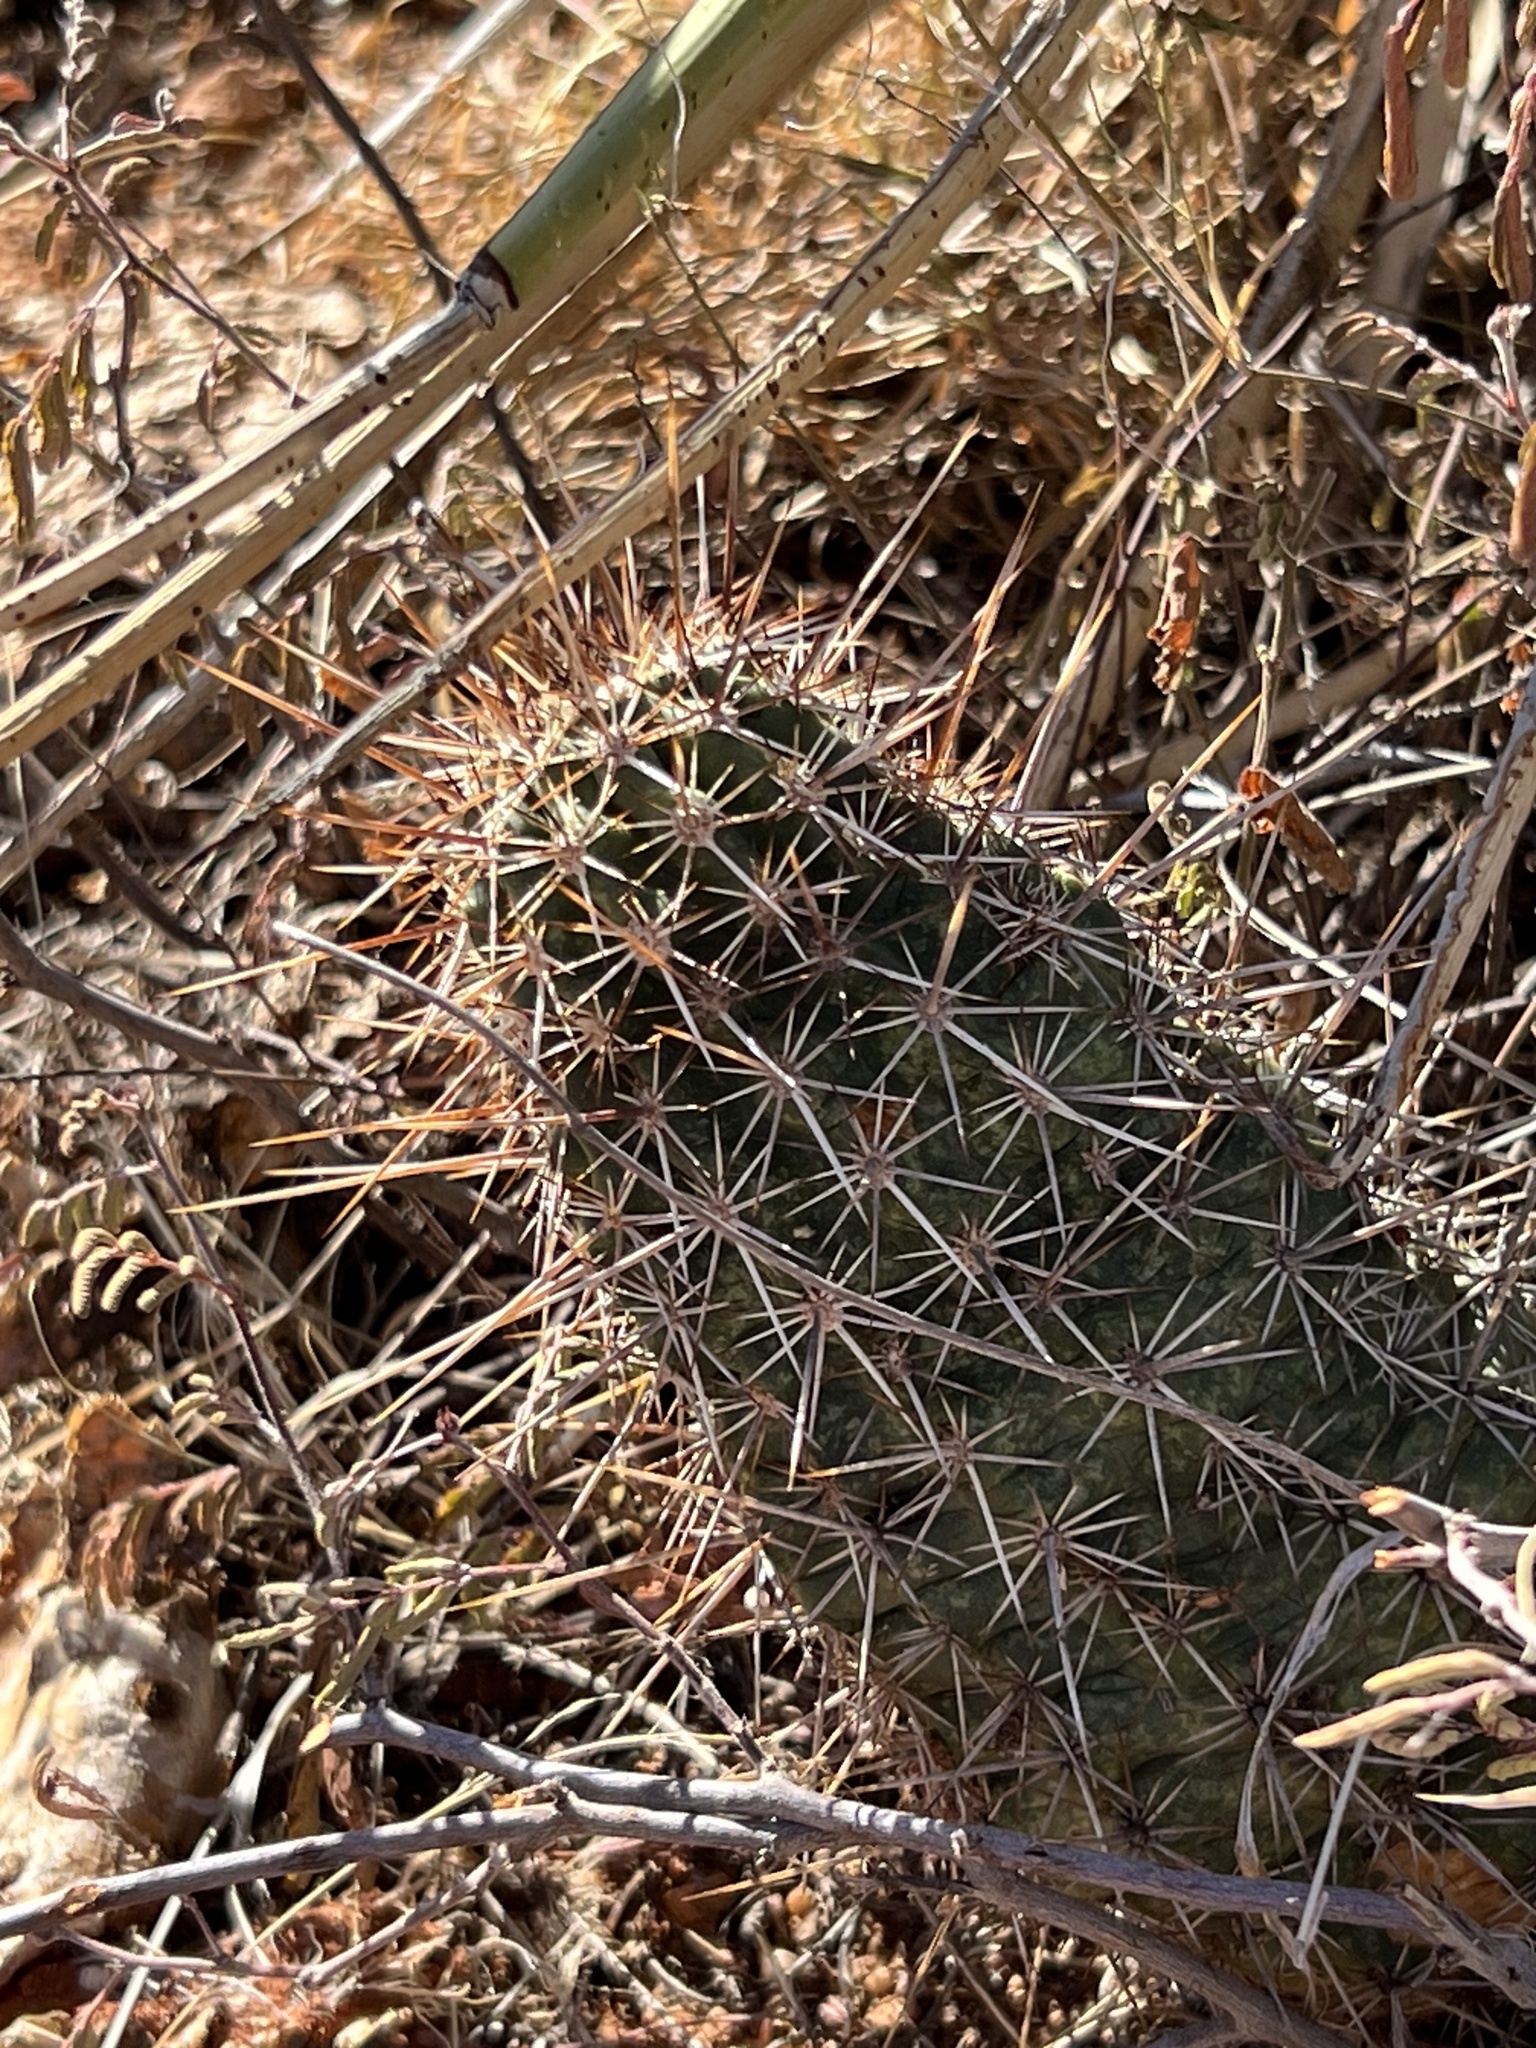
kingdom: Plantae
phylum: Tracheophyta
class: Magnoliopsida
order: Caryophyllales
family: Cactaceae
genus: Echinocereus
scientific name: Echinocereus fendleri
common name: Fendler's hedgehog cactus
